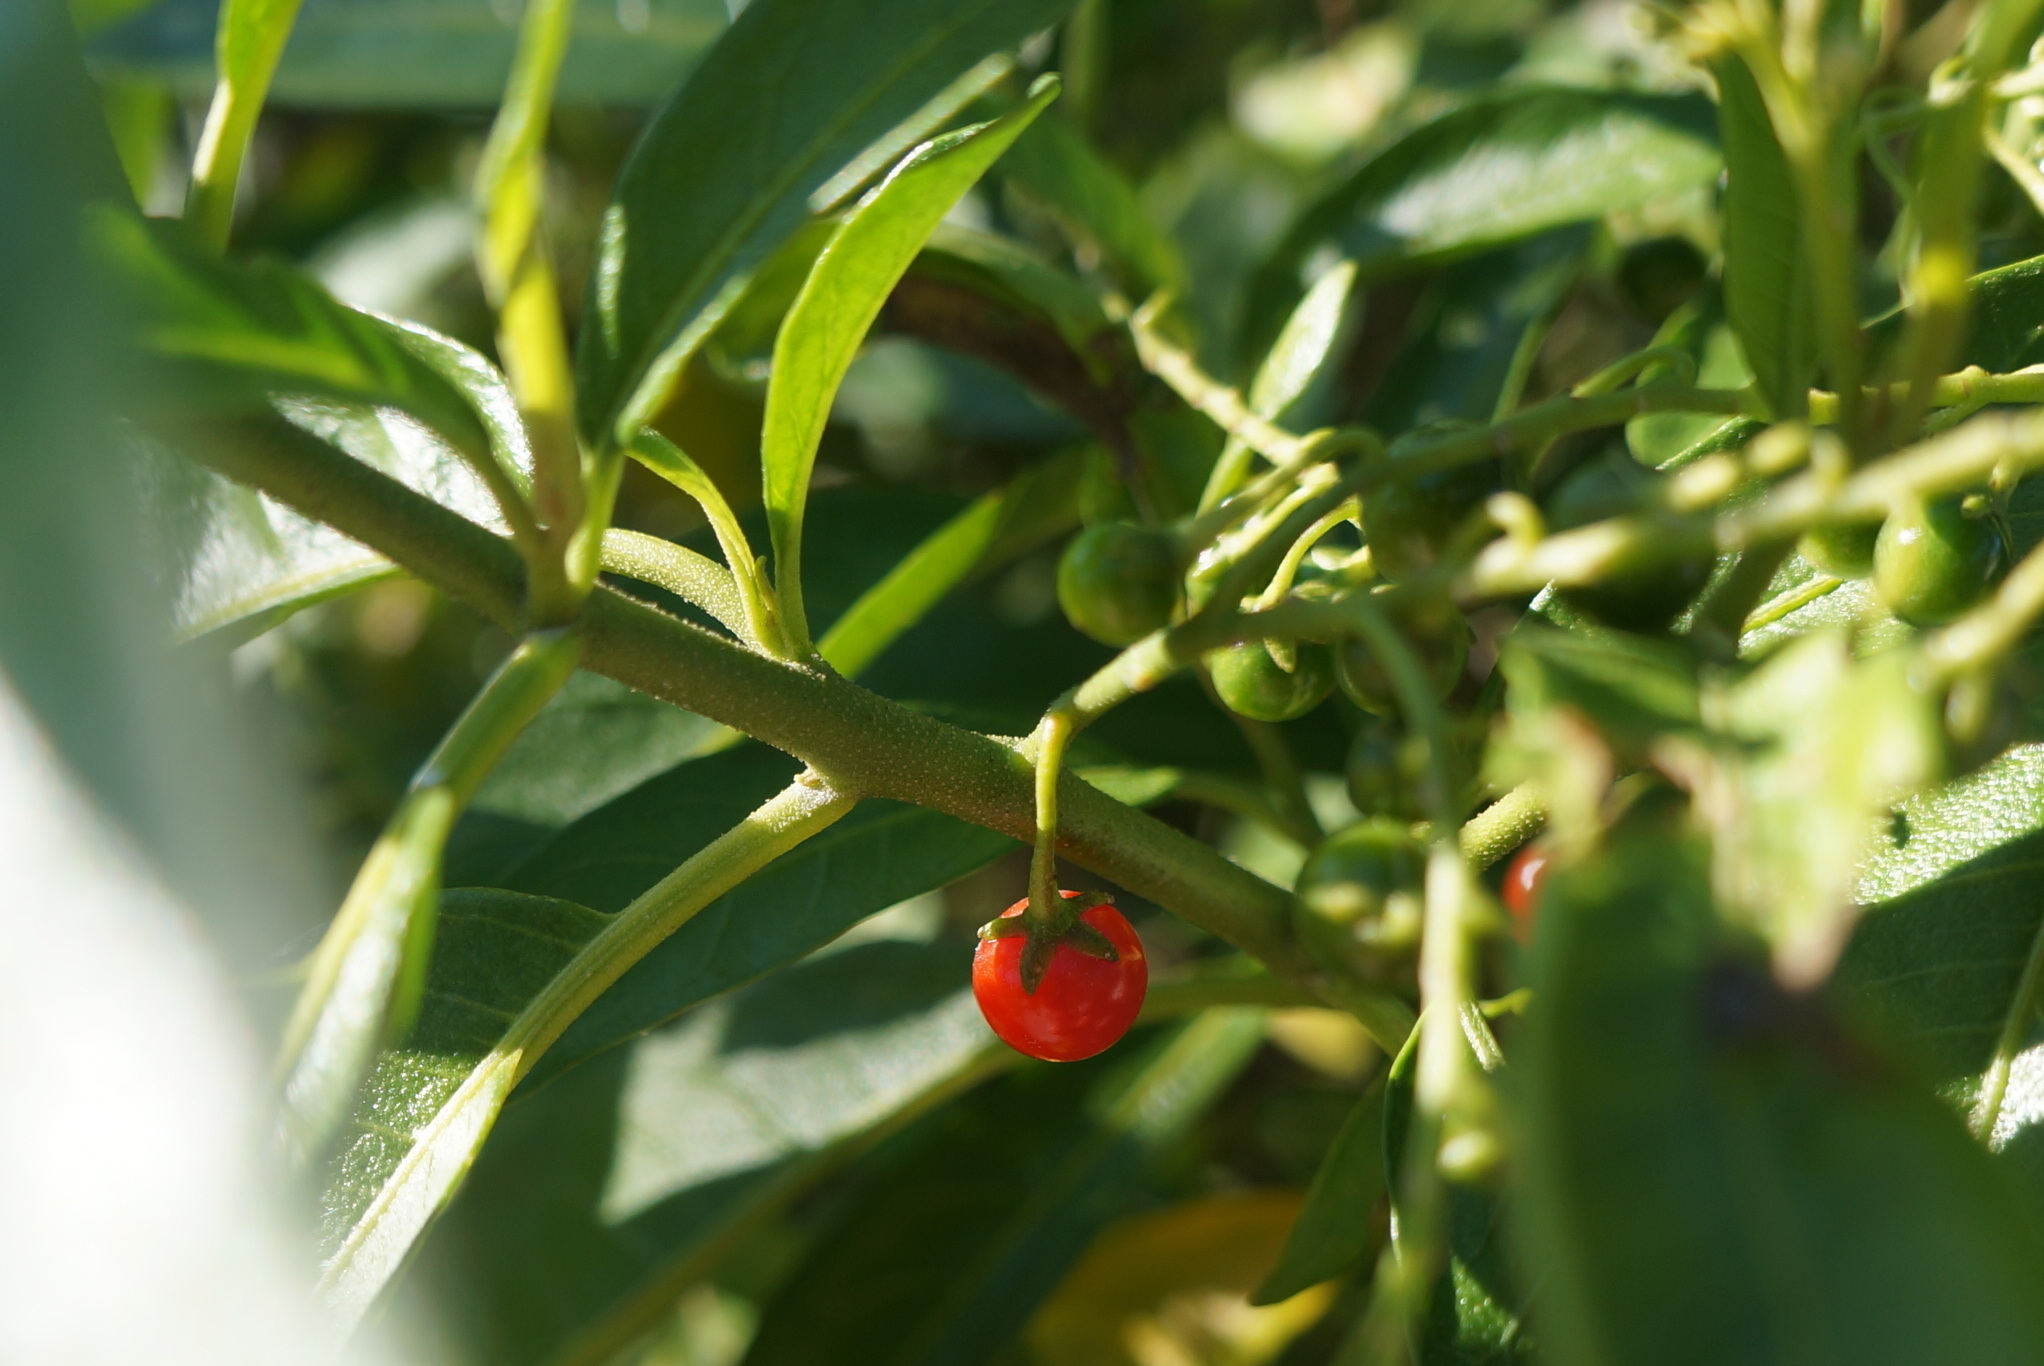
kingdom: Plantae
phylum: Tracheophyta
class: Magnoliopsida
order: Solanales
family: Solanaceae
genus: Solanum
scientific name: Solanum bahamense
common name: Canker-berry
